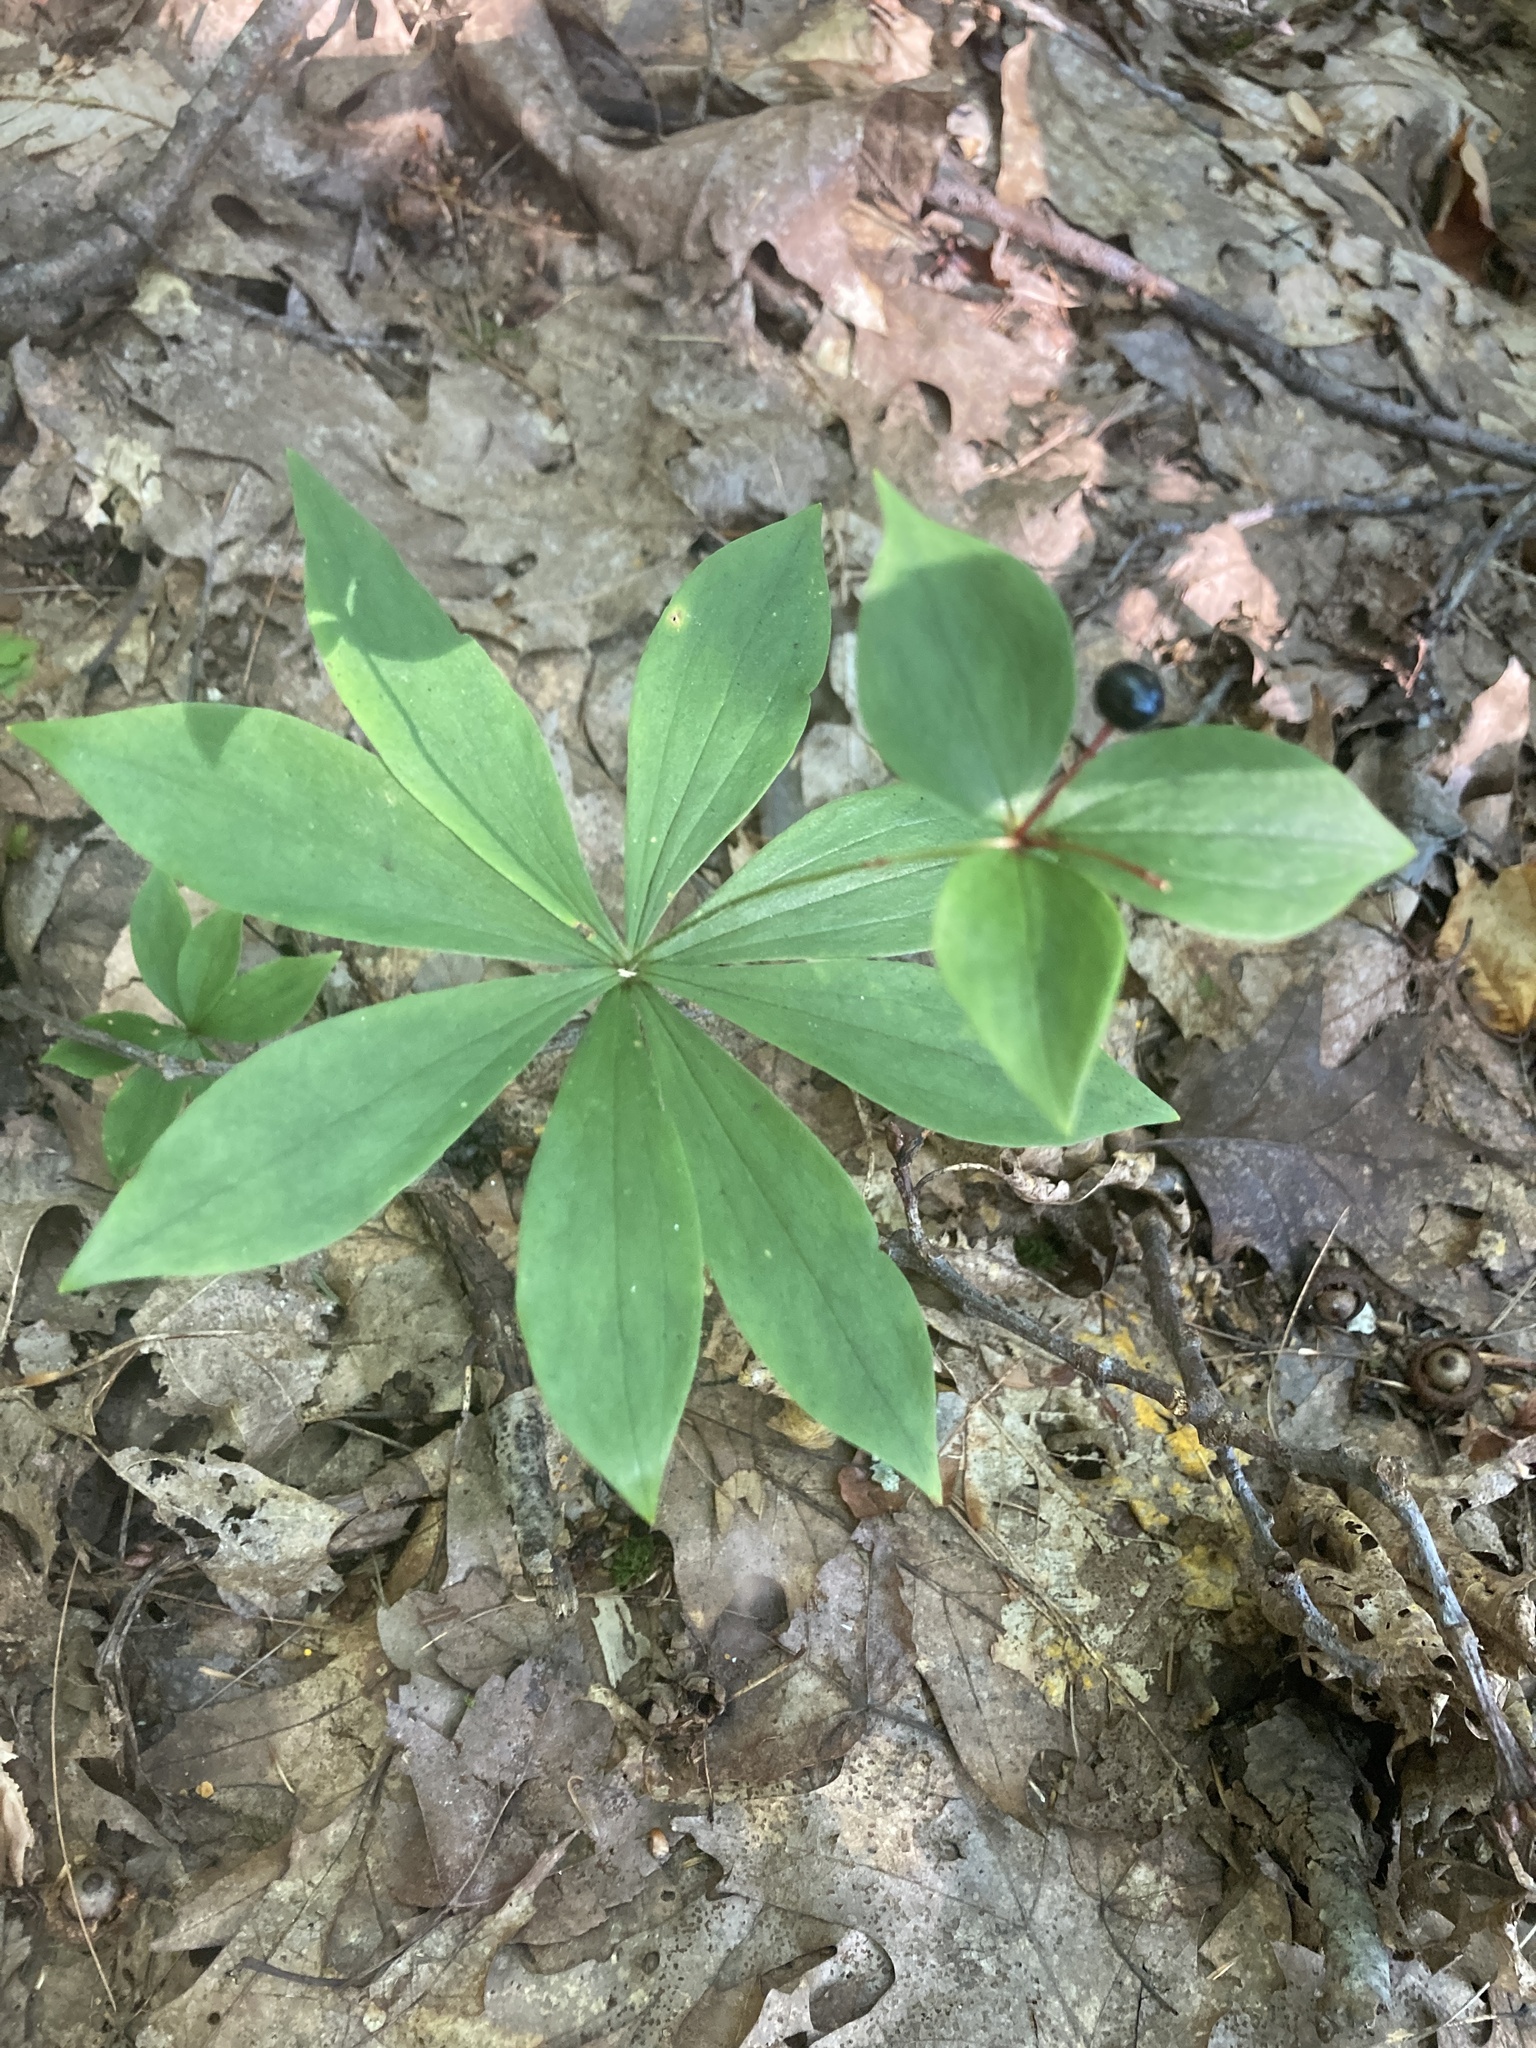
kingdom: Plantae
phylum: Tracheophyta
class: Liliopsida
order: Liliales
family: Liliaceae
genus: Medeola
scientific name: Medeola virginiana
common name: Indian cucumber-root
